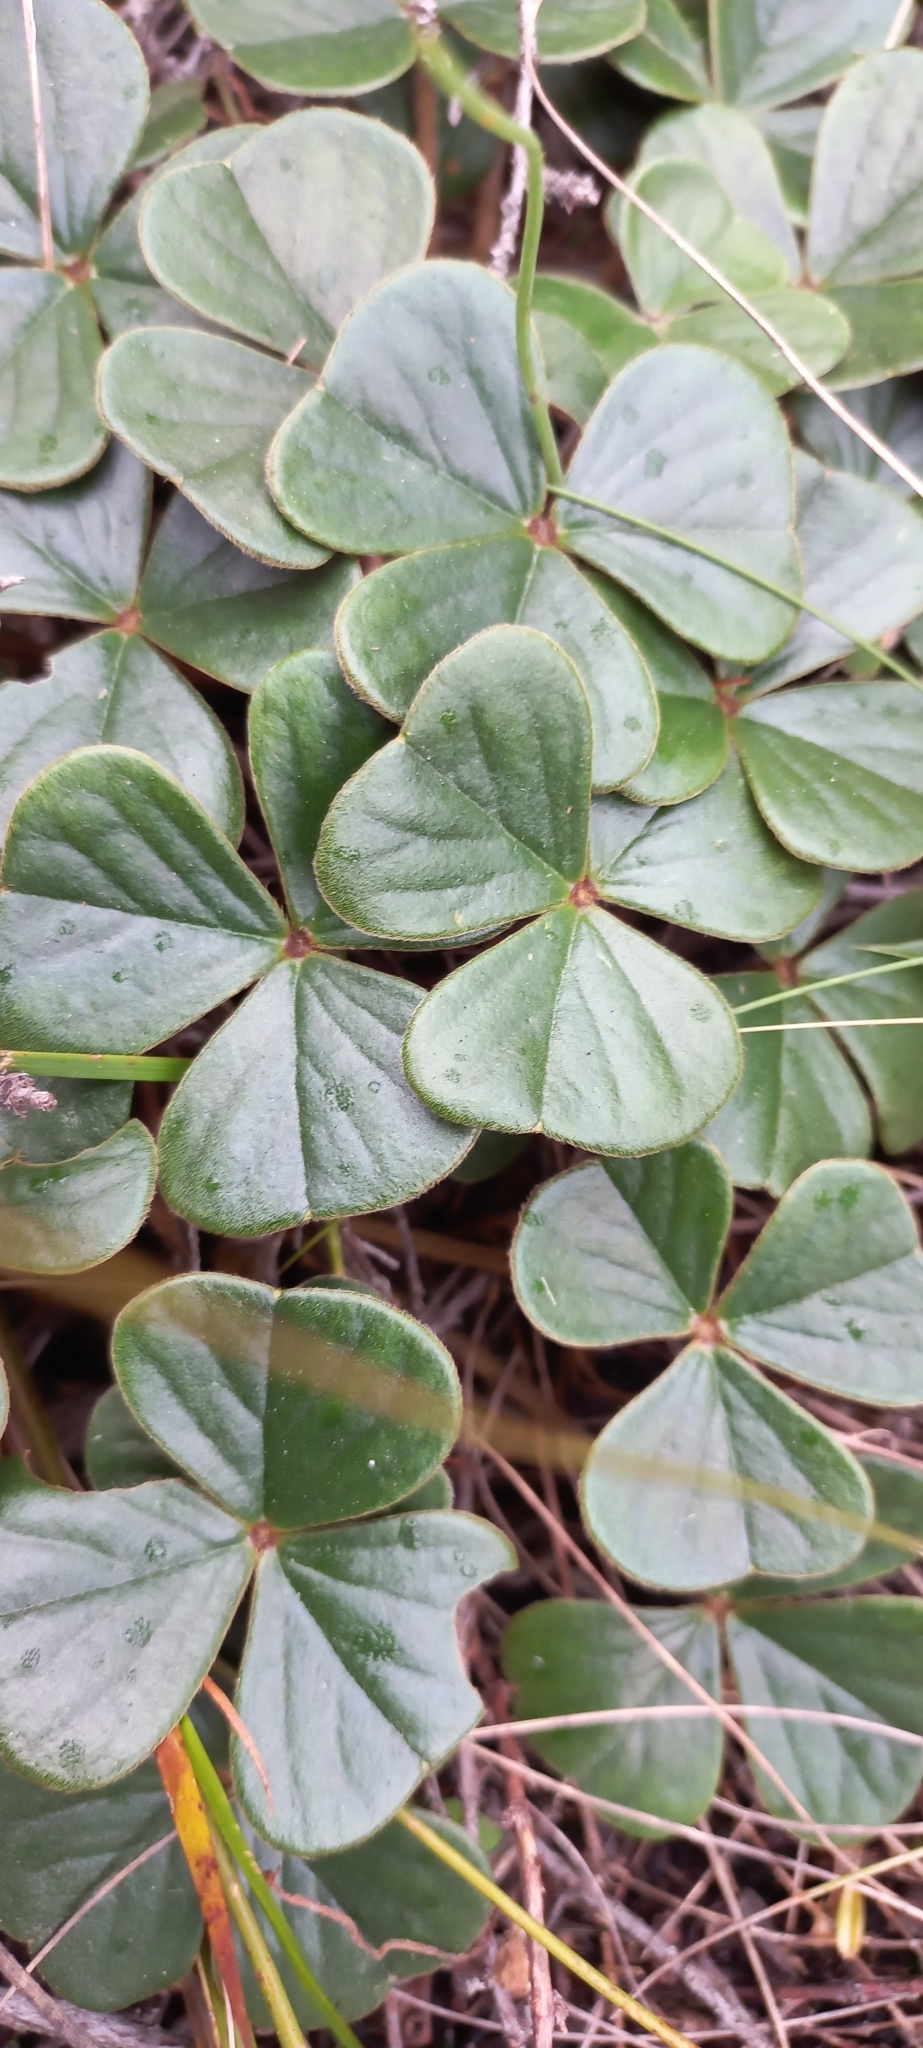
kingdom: Plantae
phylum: Tracheophyta
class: Magnoliopsida
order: Oxalidales
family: Oxalidaceae
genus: Oxalis
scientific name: Oxalis truncatula
